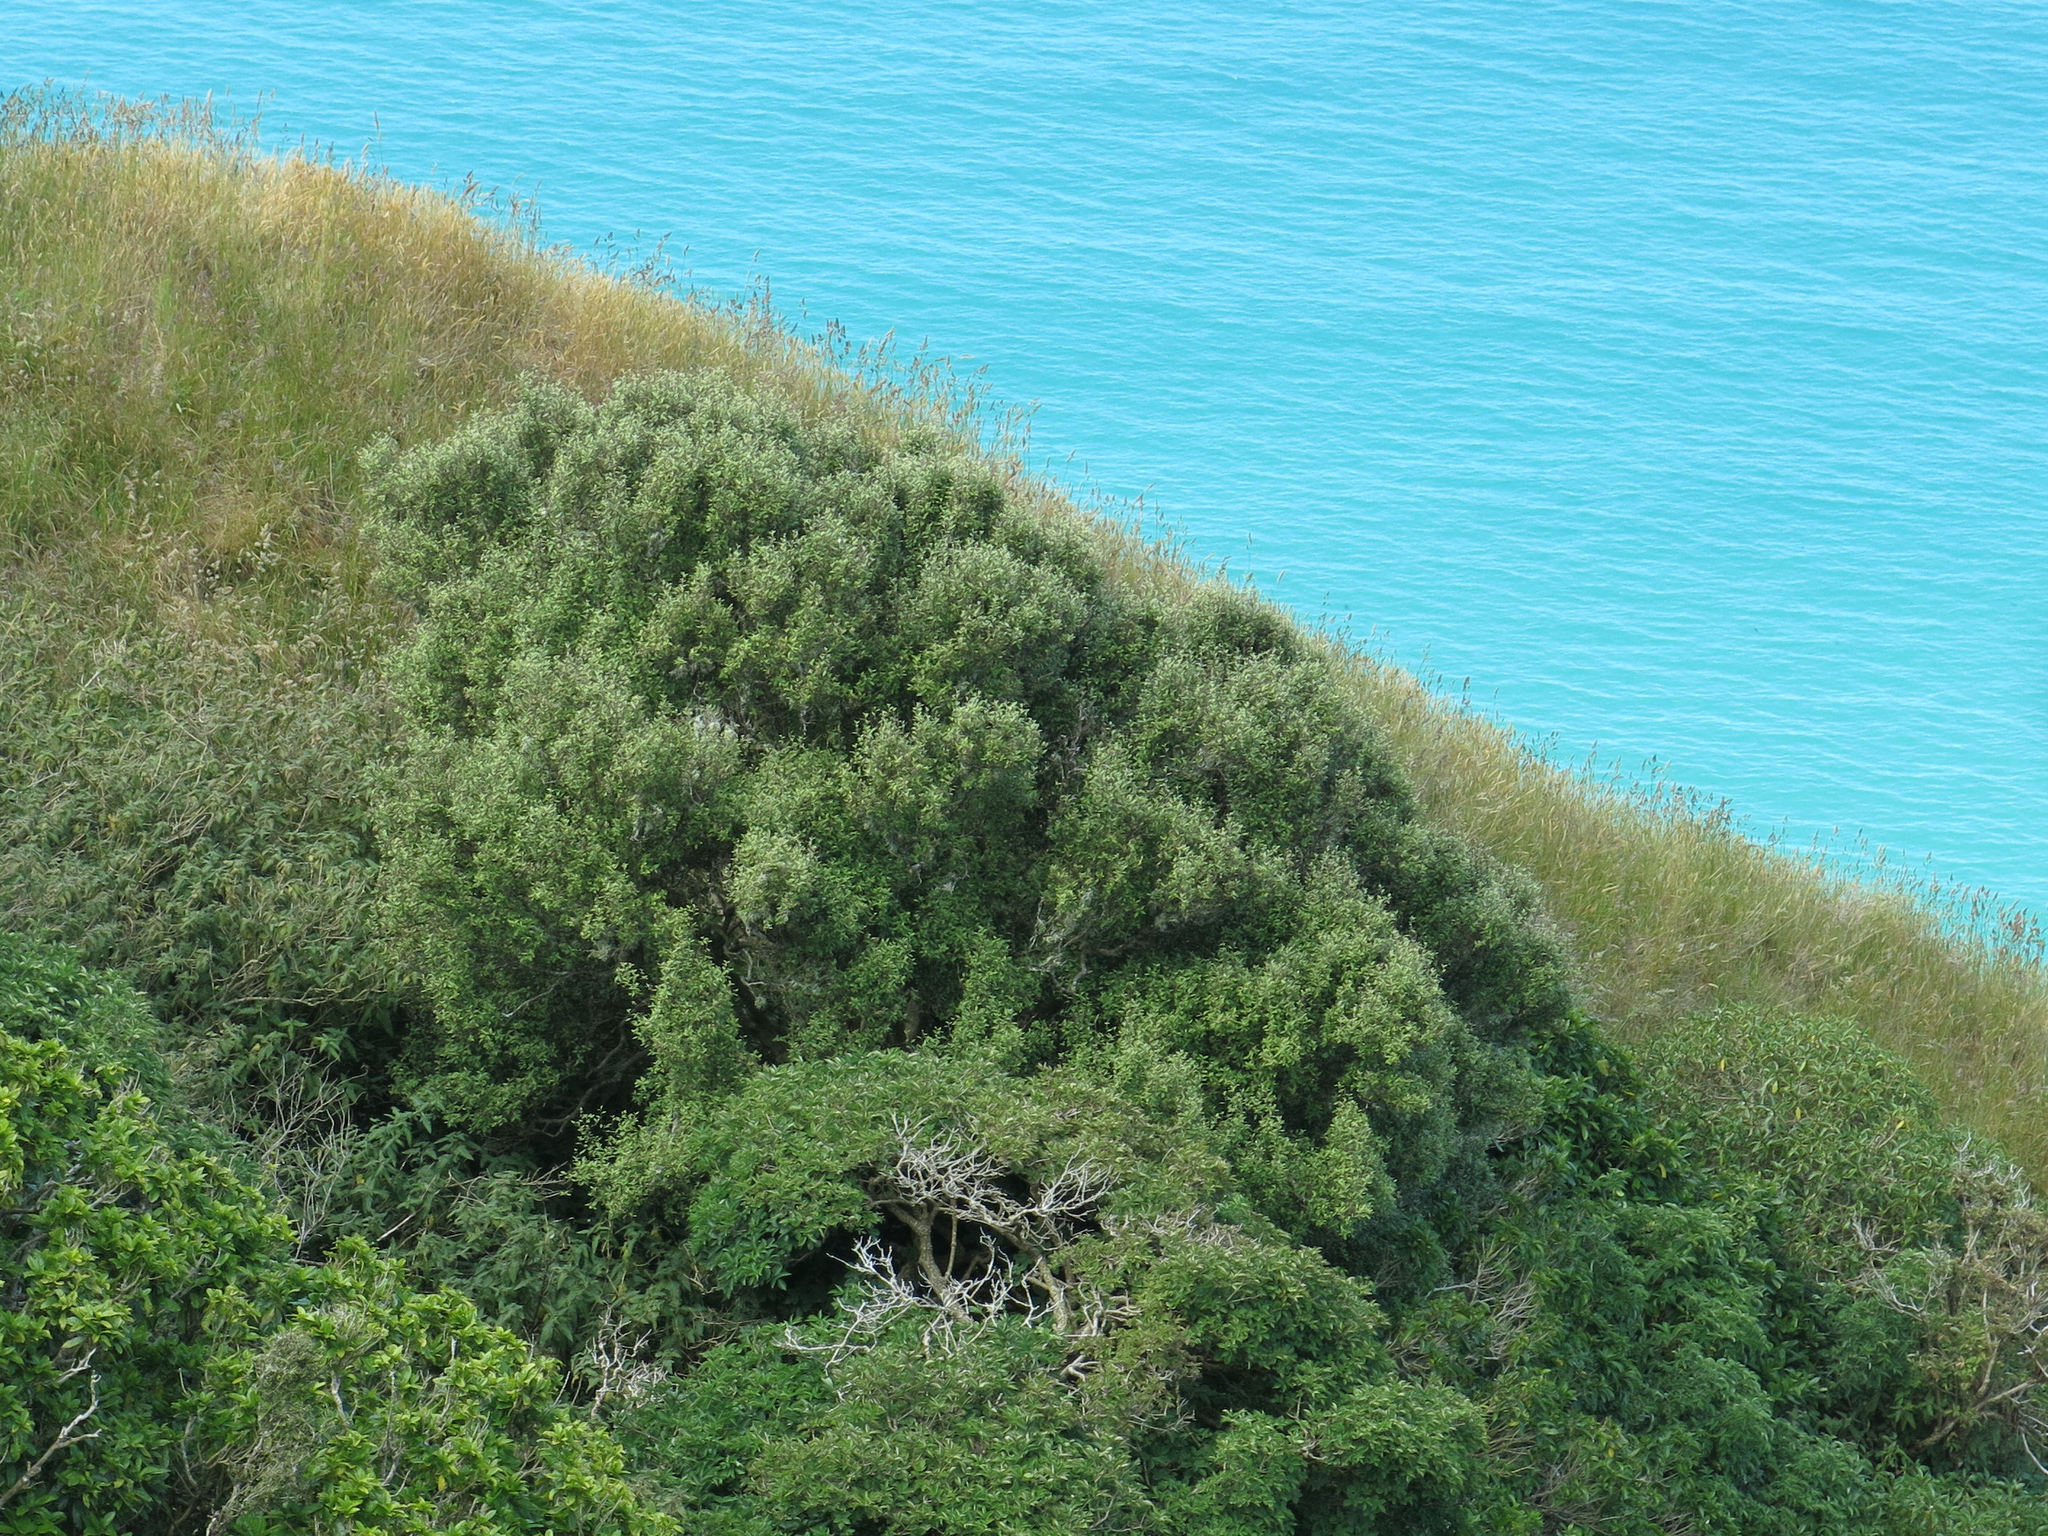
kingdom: Plantae
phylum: Tracheophyta
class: Magnoliopsida
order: Asterales
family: Asteraceae
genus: Olearia
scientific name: Olearia fragrantissima
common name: Fragrant tree daisy
